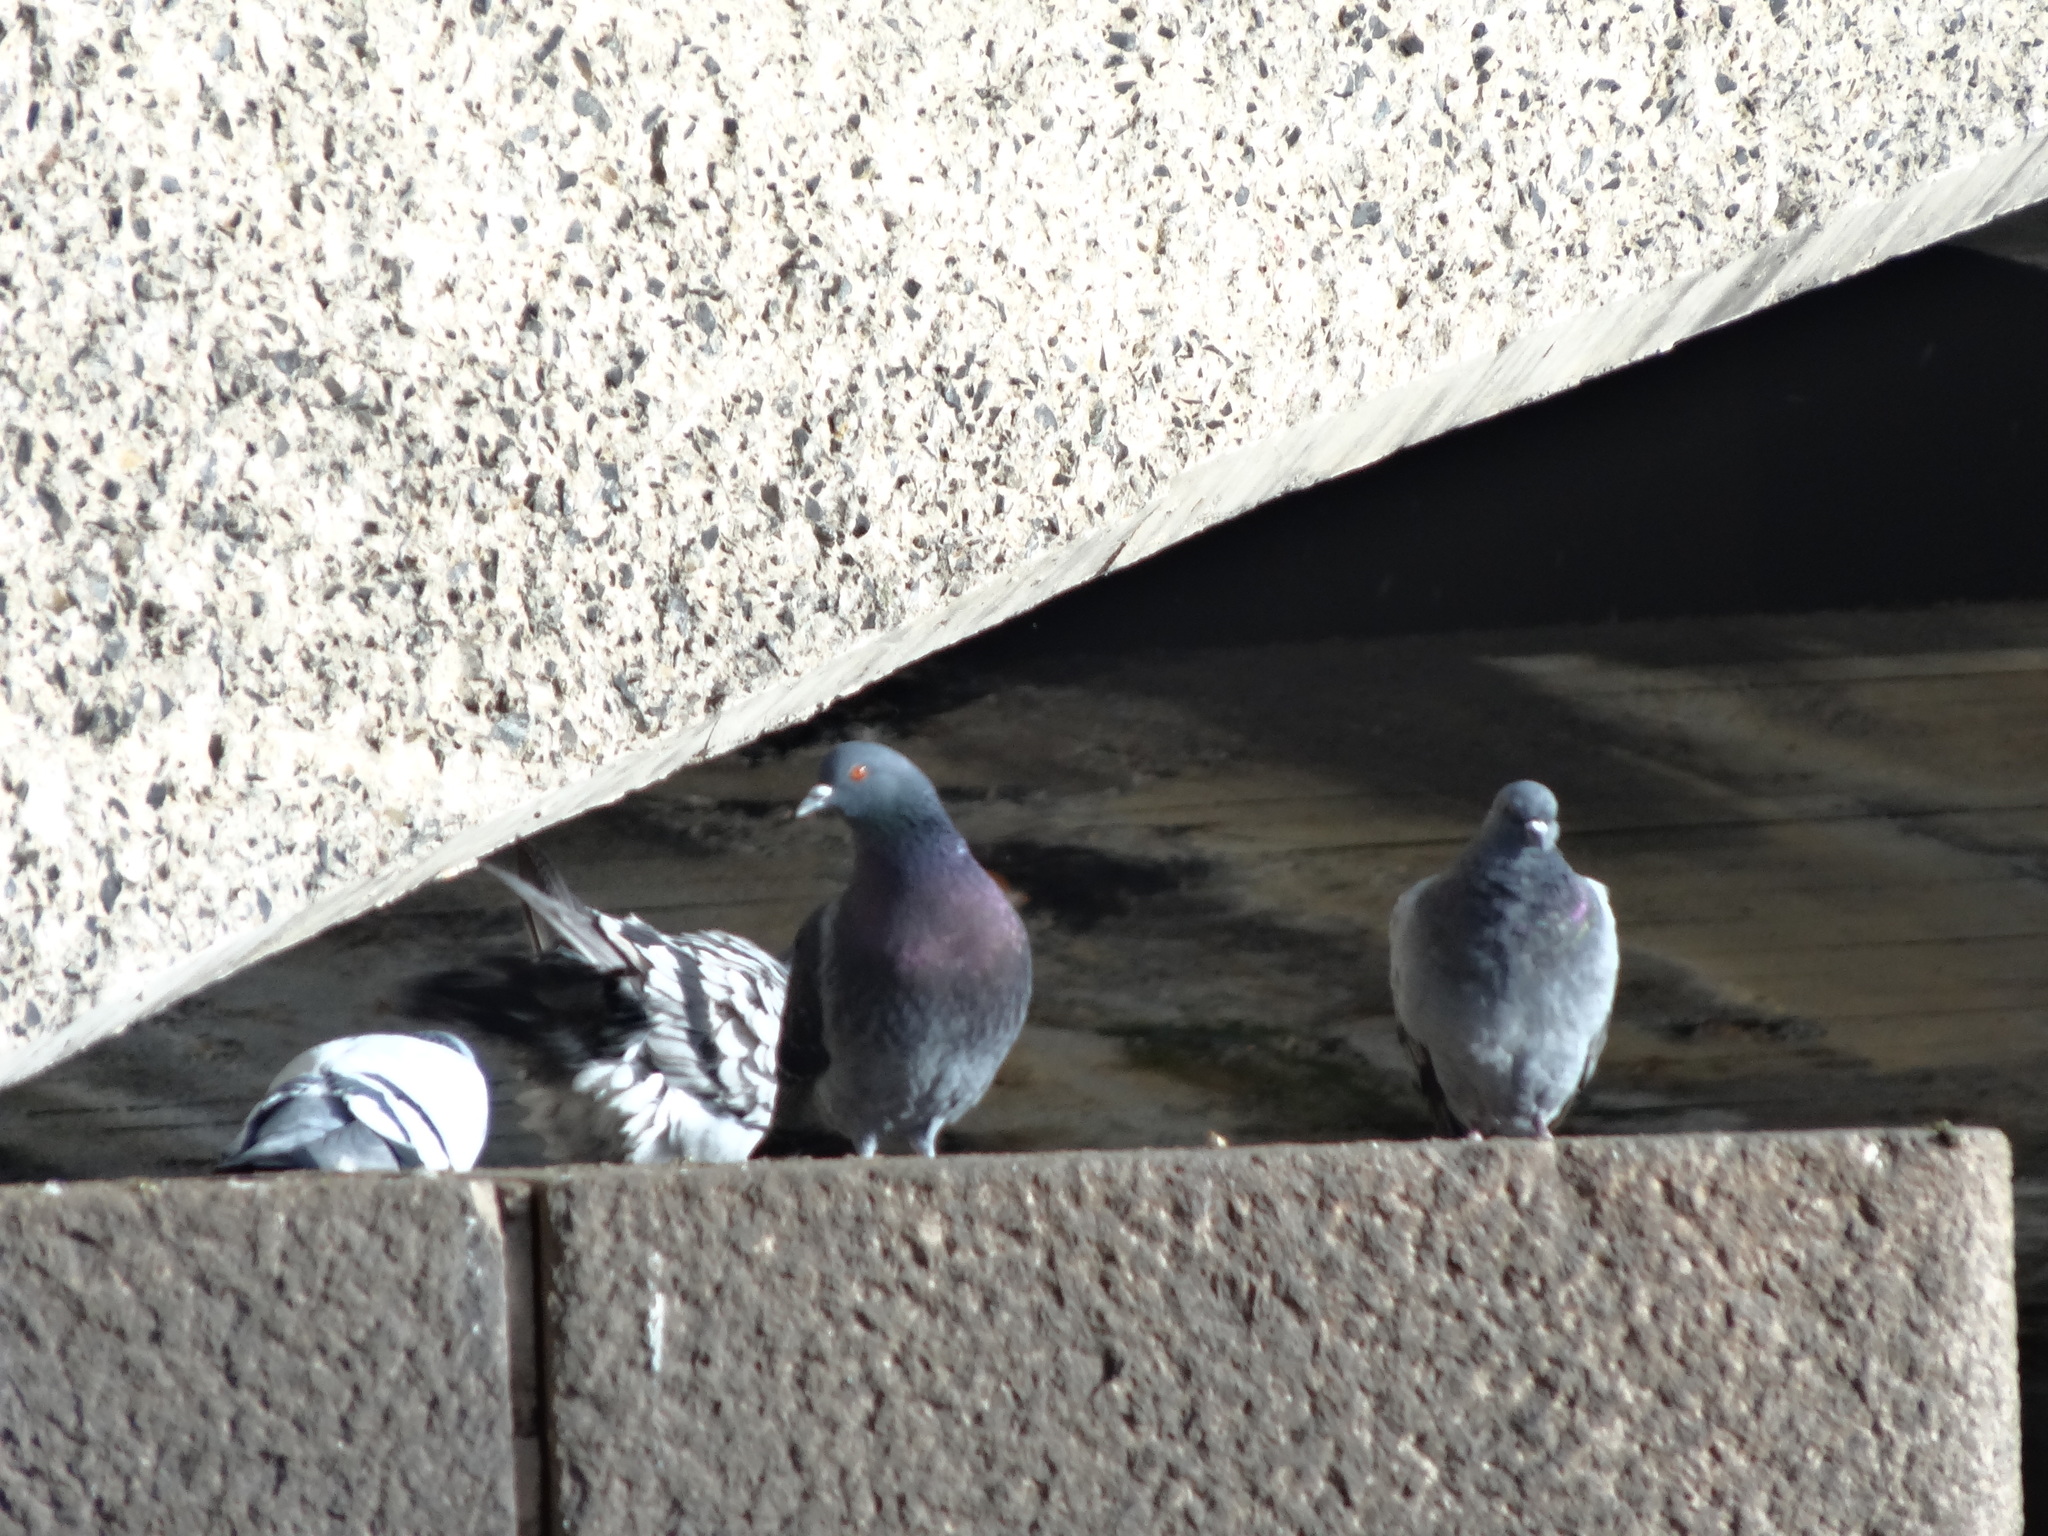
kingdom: Animalia
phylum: Chordata
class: Aves
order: Columbiformes
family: Columbidae
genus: Columba
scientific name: Columba livia
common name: Rock pigeon
